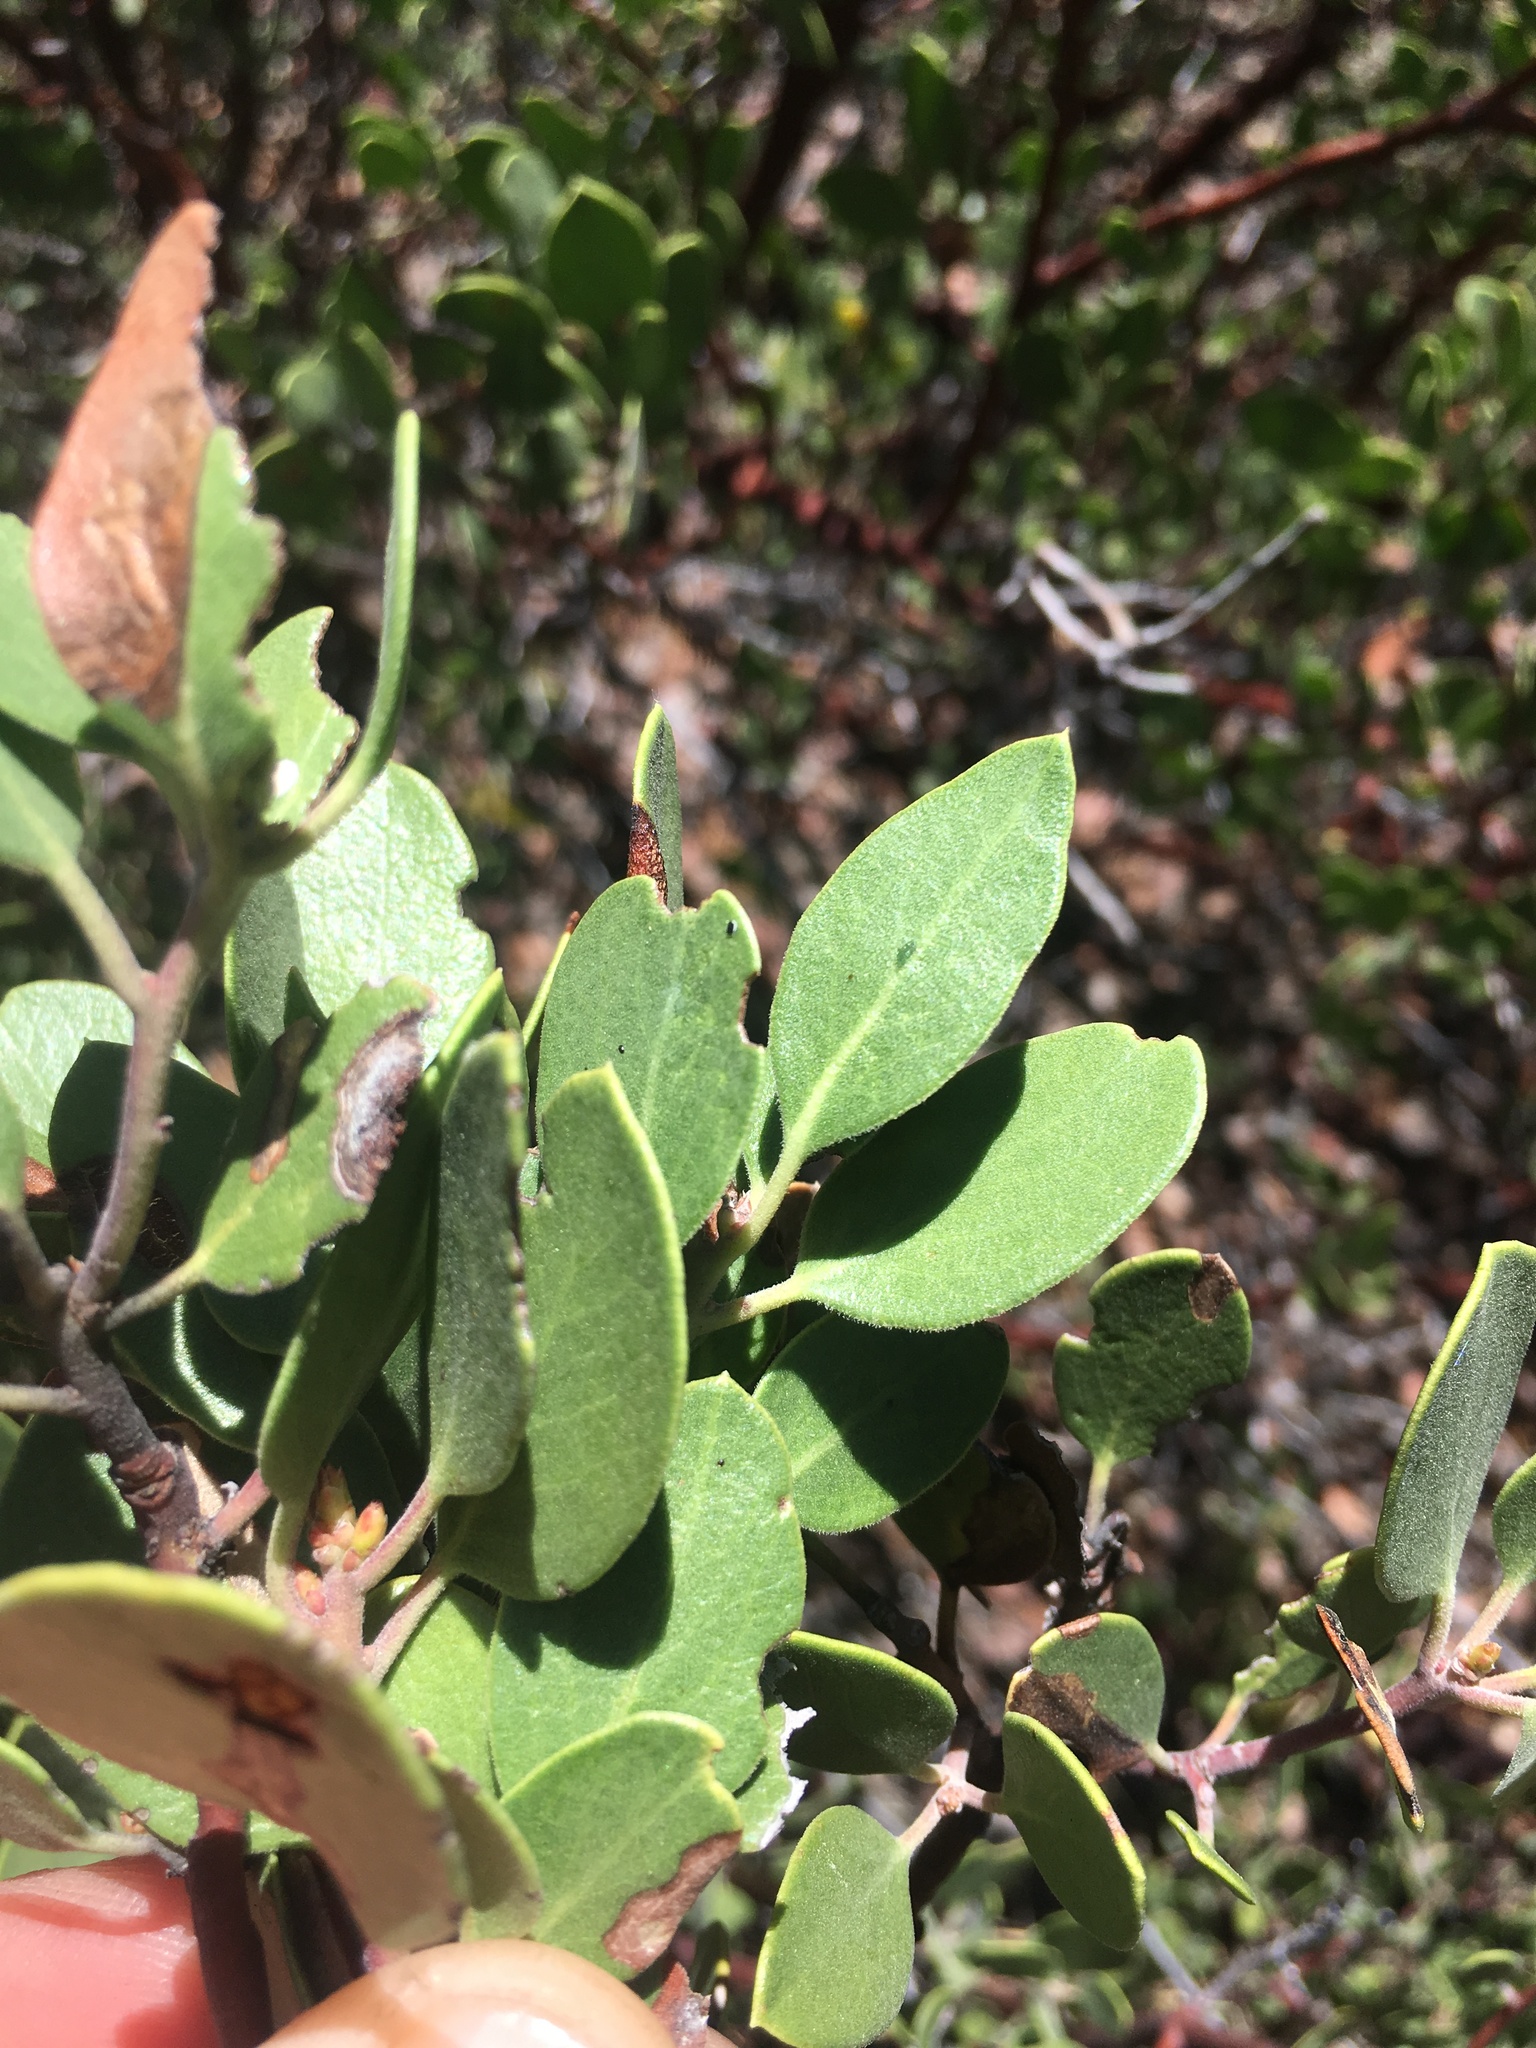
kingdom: Plantae
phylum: Tracheophyta
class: Magnoliopsida
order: Ericales
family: Ericaceae
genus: Arctostaphylos
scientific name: Arctostaphylos parryana
